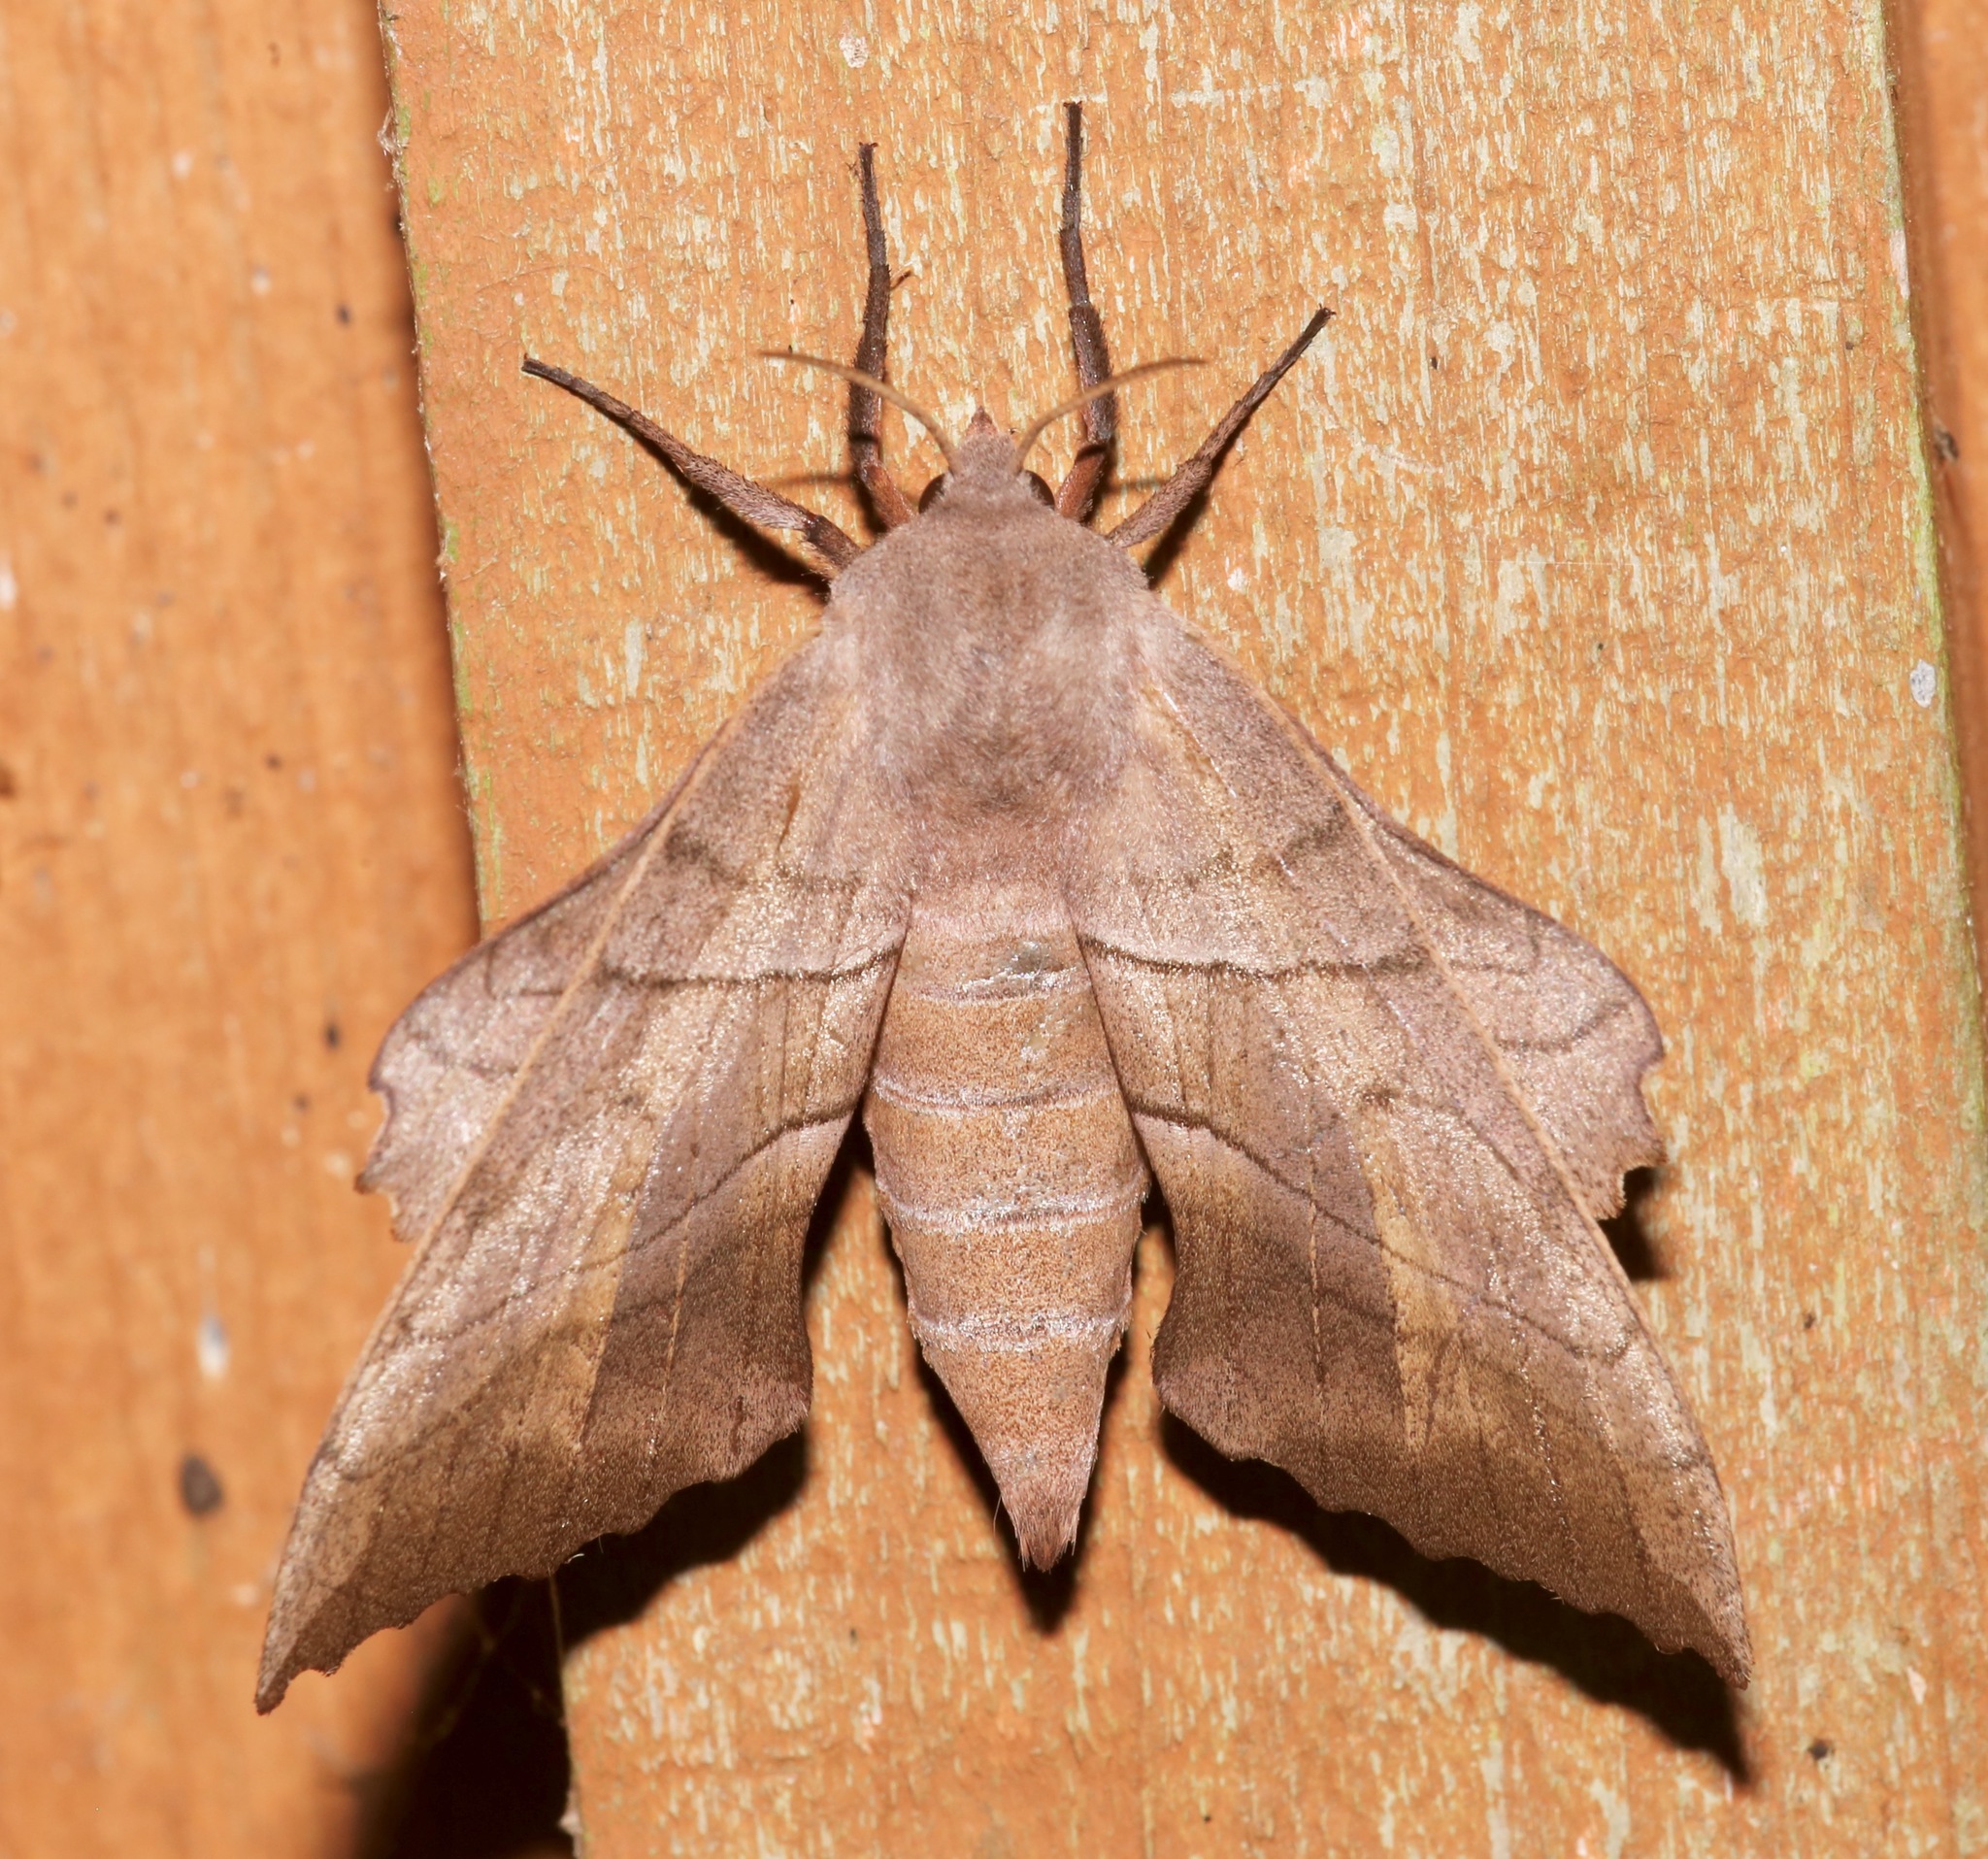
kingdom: Animalia
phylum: Arthropoda
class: Insecta
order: Lepidoptera
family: Sphingidae
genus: Amorpha
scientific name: Amorpha juglandis
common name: Walnut sphinx
